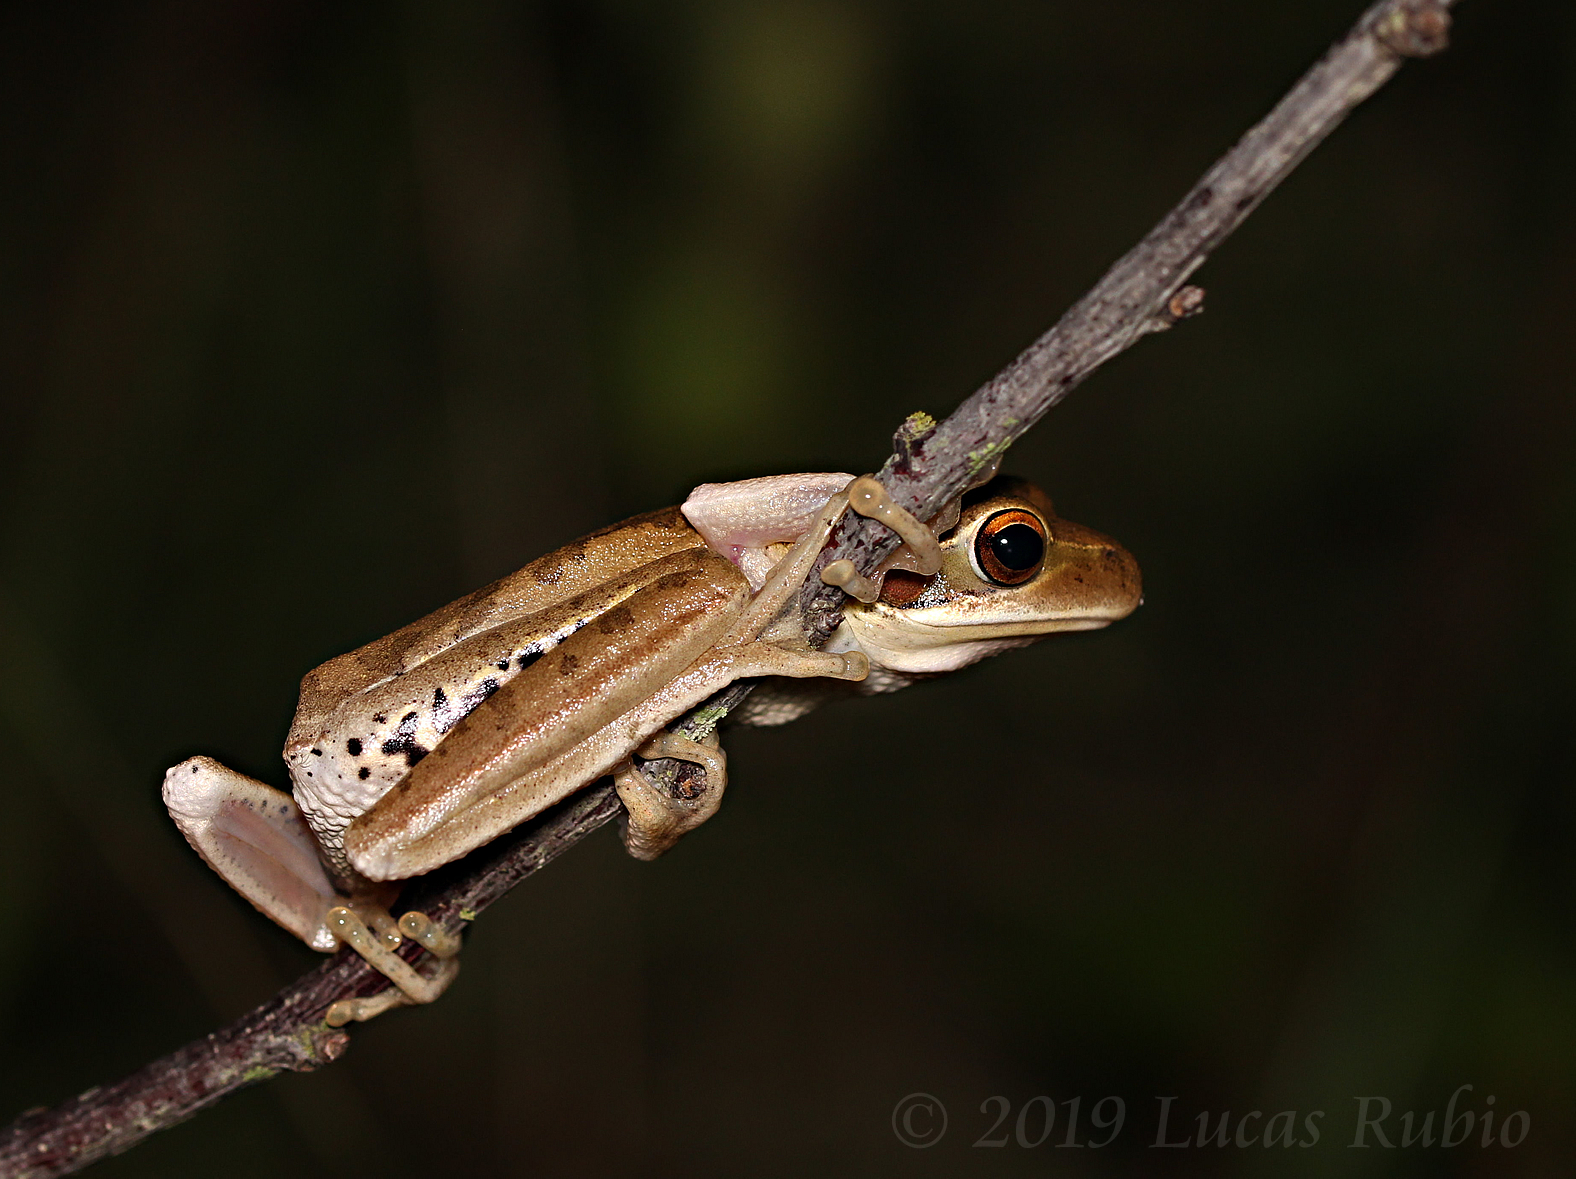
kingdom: Animalia
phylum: Chordata
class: Amphibia
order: Anura
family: Hylidae
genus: Boana
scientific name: Boana pulchella
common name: Montevideo treefrog
